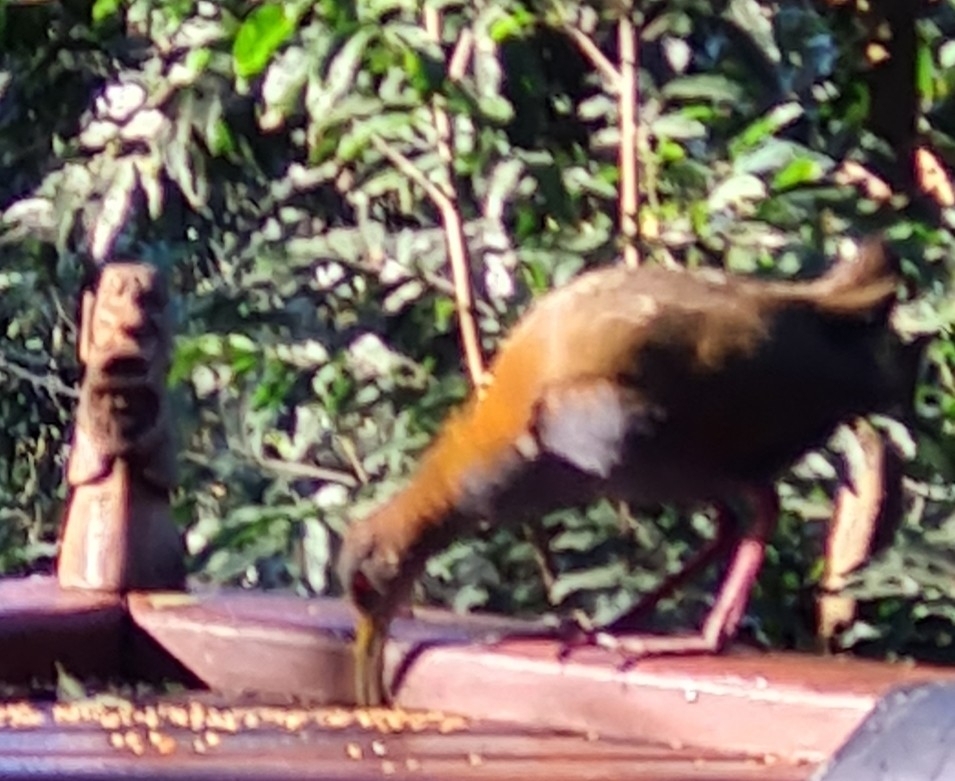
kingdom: Animalia
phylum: Chordata
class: Aves
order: Gruiformes
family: Rallidae
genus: Aramides
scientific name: Aramides saracura
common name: Slaty-breasted wood rail
